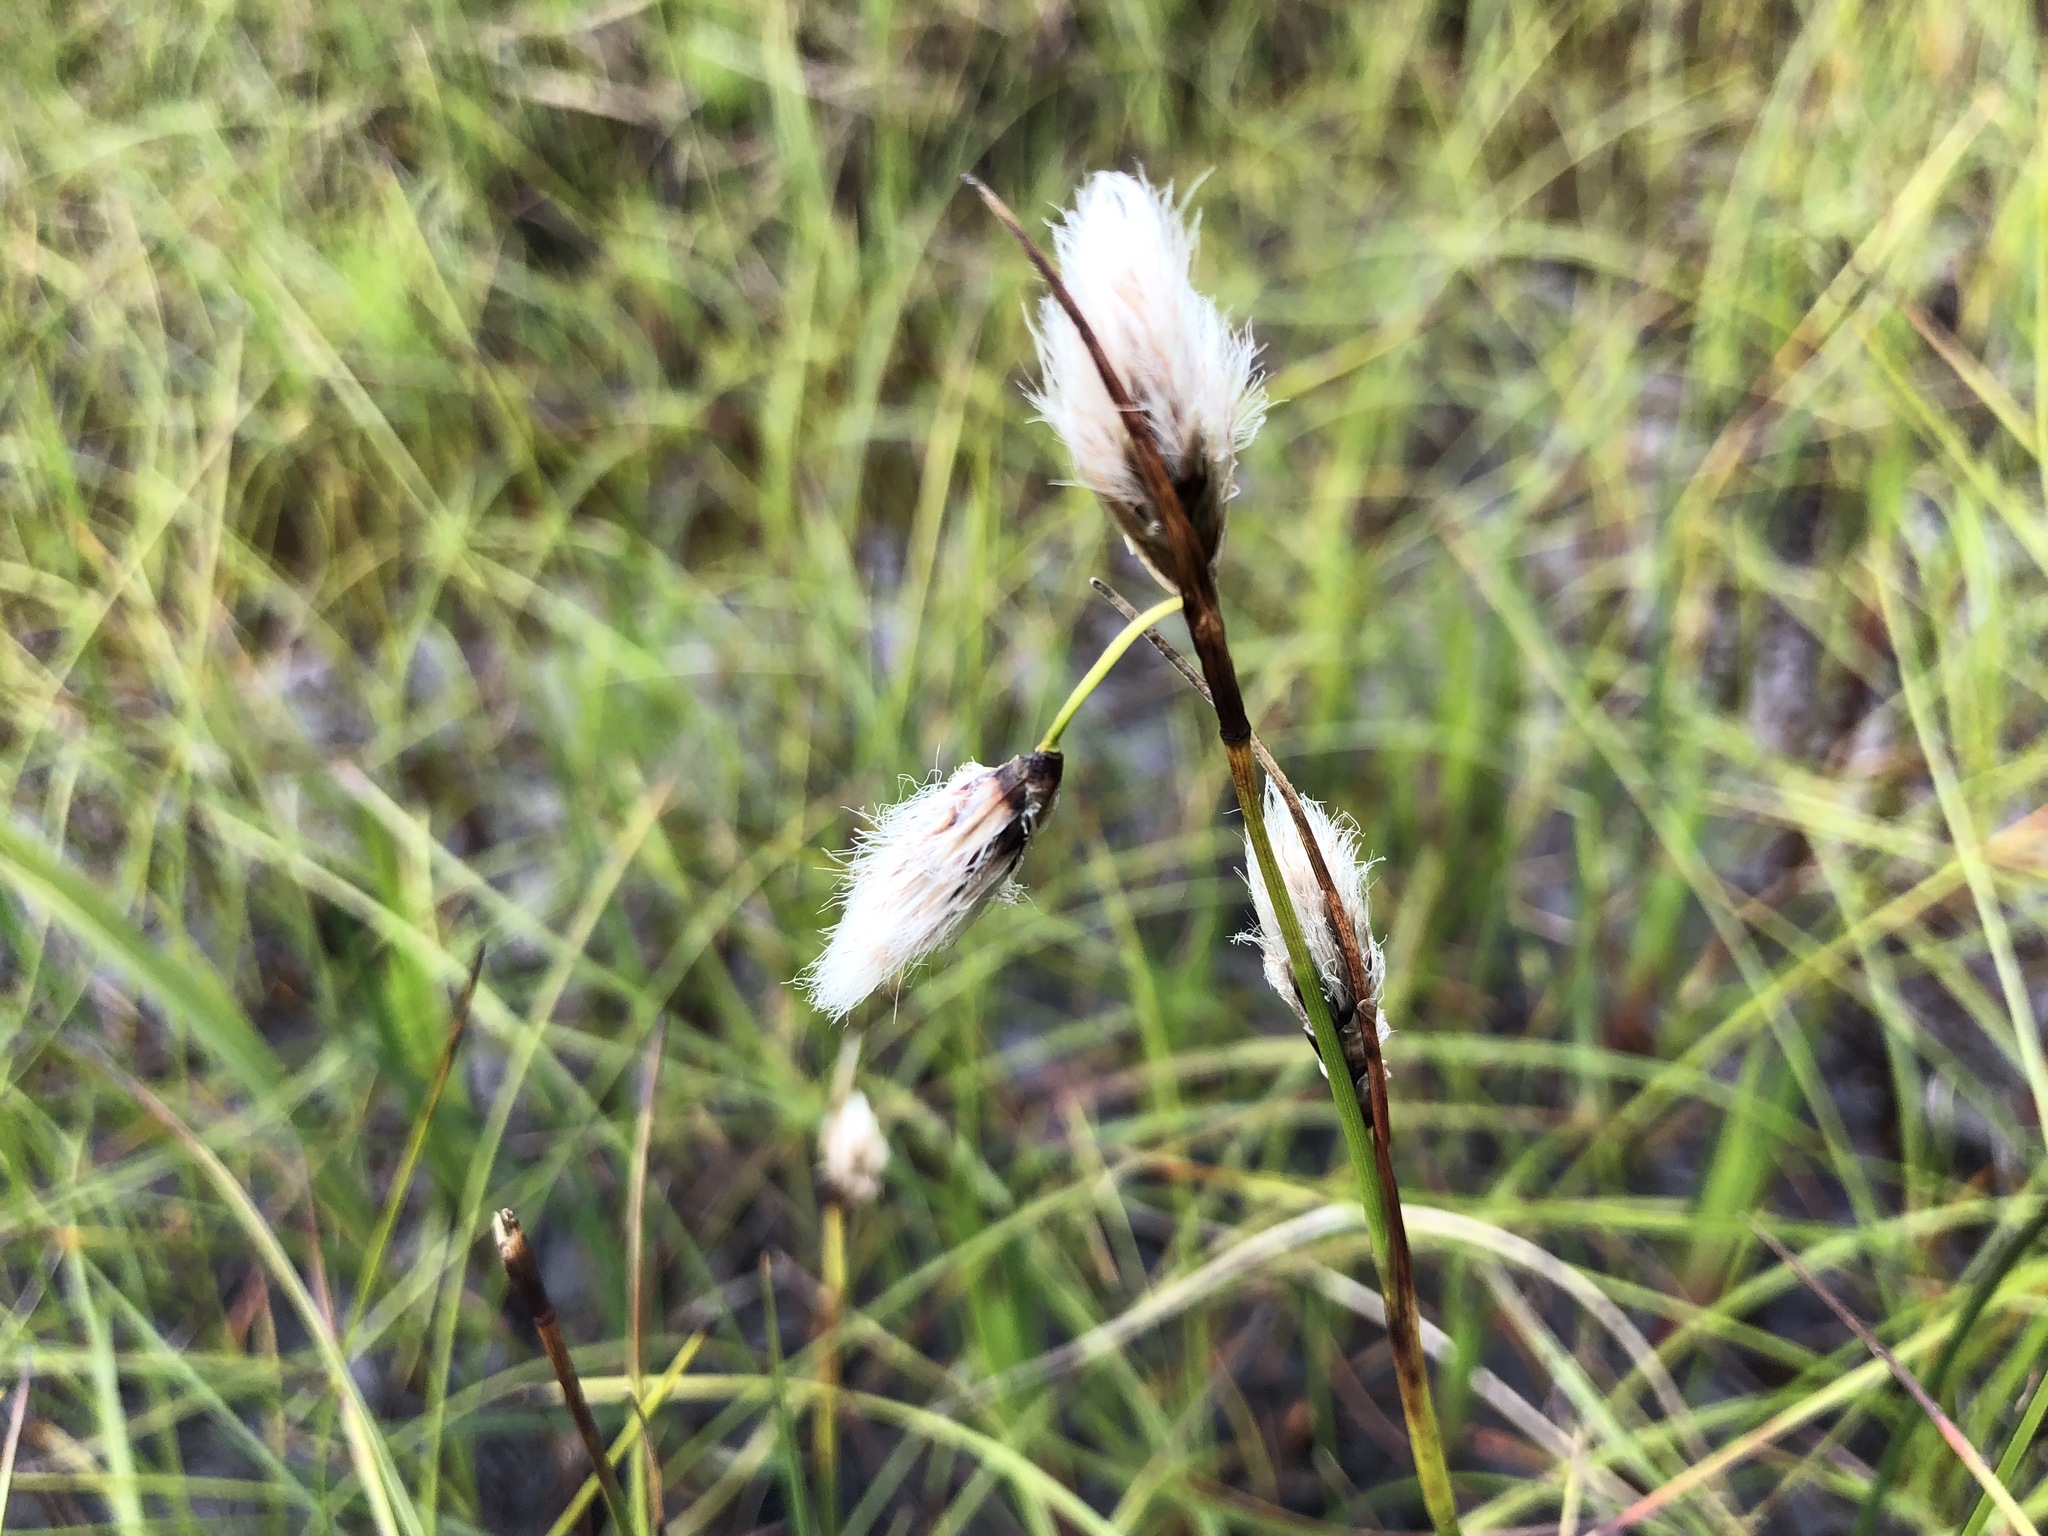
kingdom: Plantae
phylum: Tracheophyta
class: Liliopsida
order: Poales
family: Cyperaceae
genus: Eriophorum
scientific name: Eriophorum angustifolium
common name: Common cottongrass
